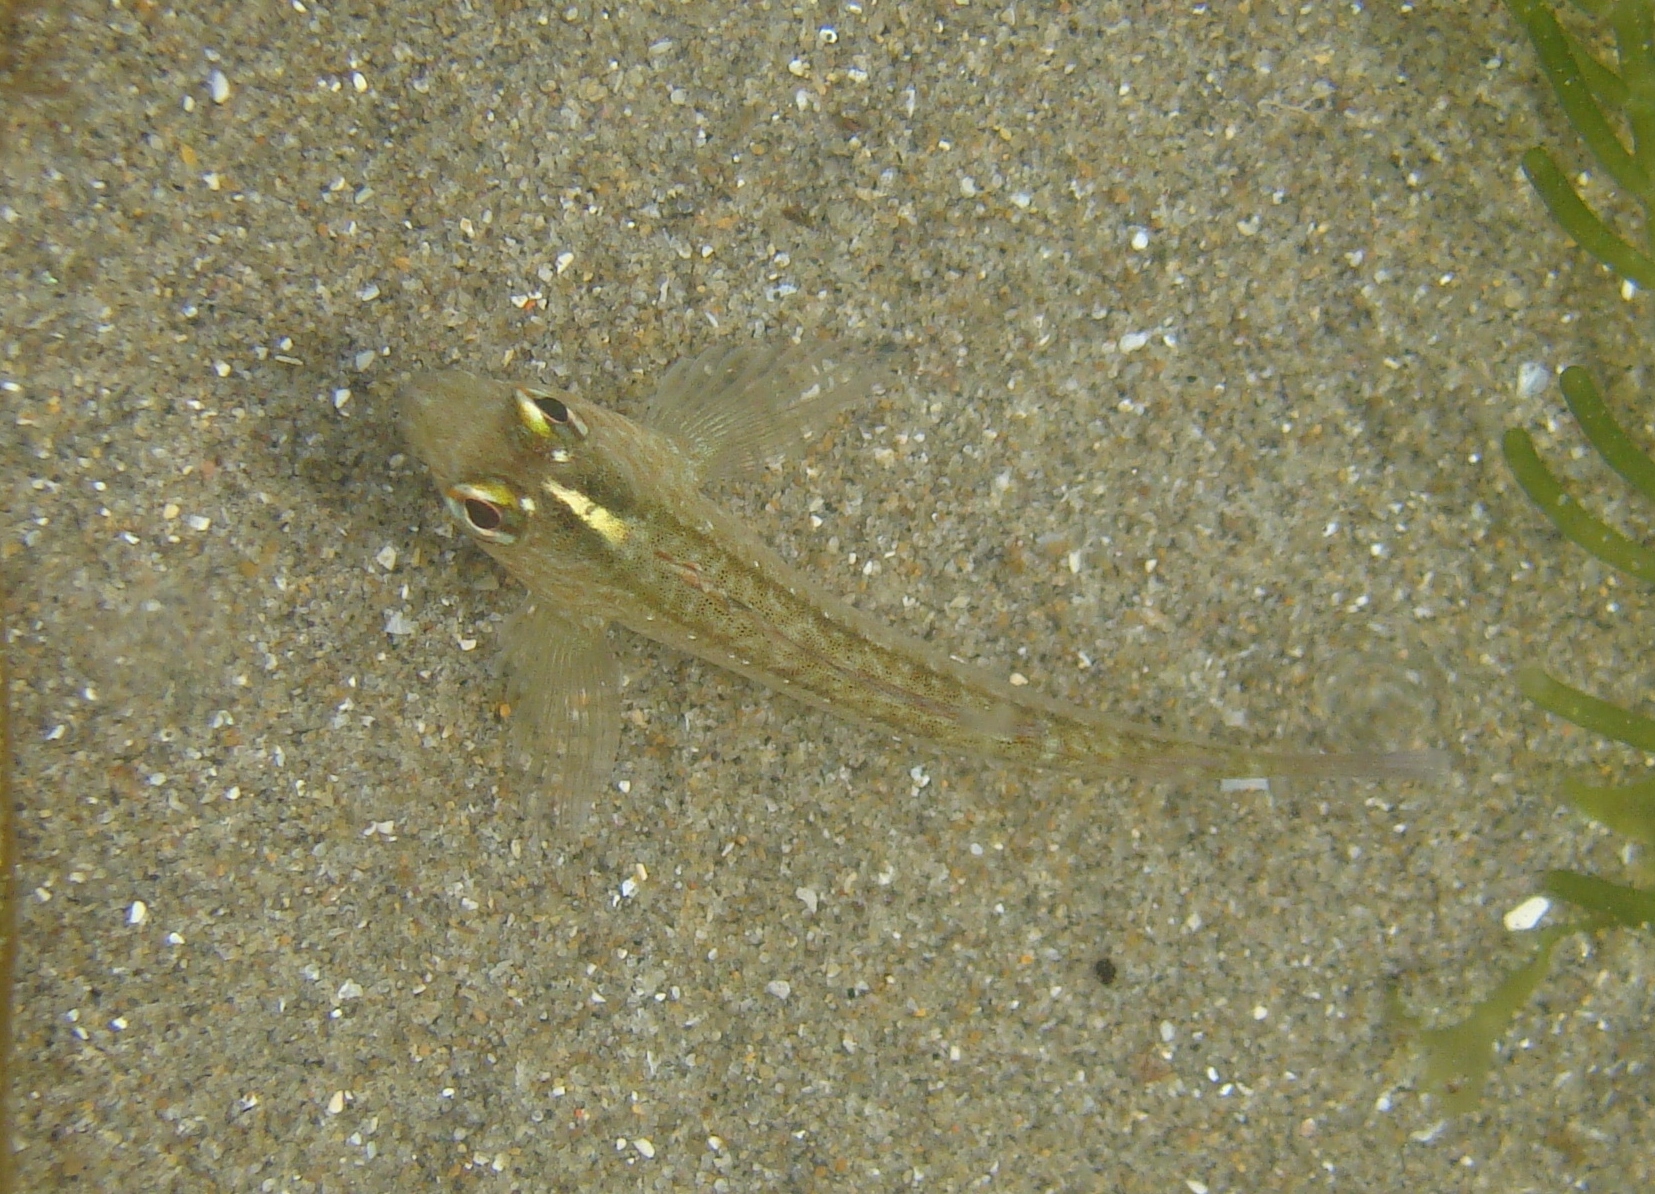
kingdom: Animalia
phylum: Chordata
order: Perciformes
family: Tripterygiidae
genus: Forsterygion
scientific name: Forsterygion lapillum
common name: Common triplefin
